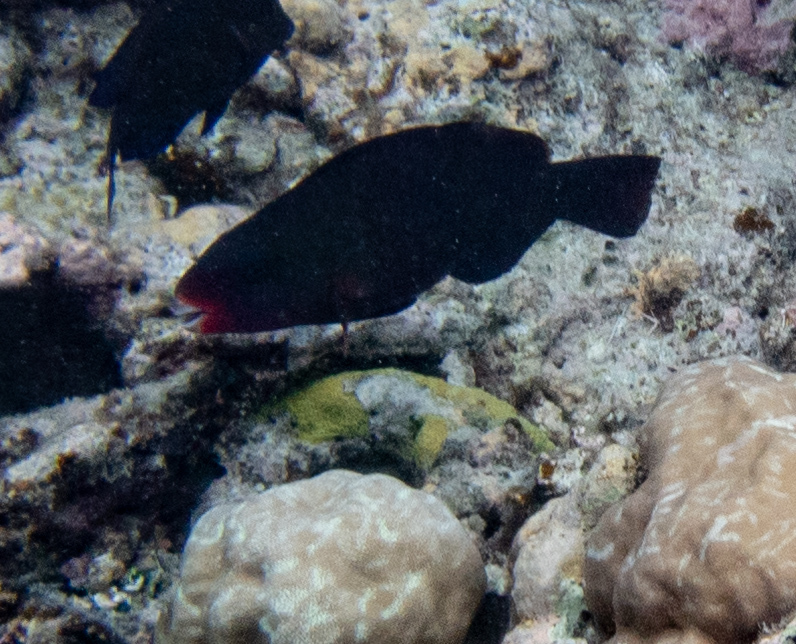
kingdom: Animalia
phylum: Chordata
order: Perciformes
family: Scaridae
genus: Chlorurus
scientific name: Chlorurus spilurus
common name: Bullethead parrotfish
